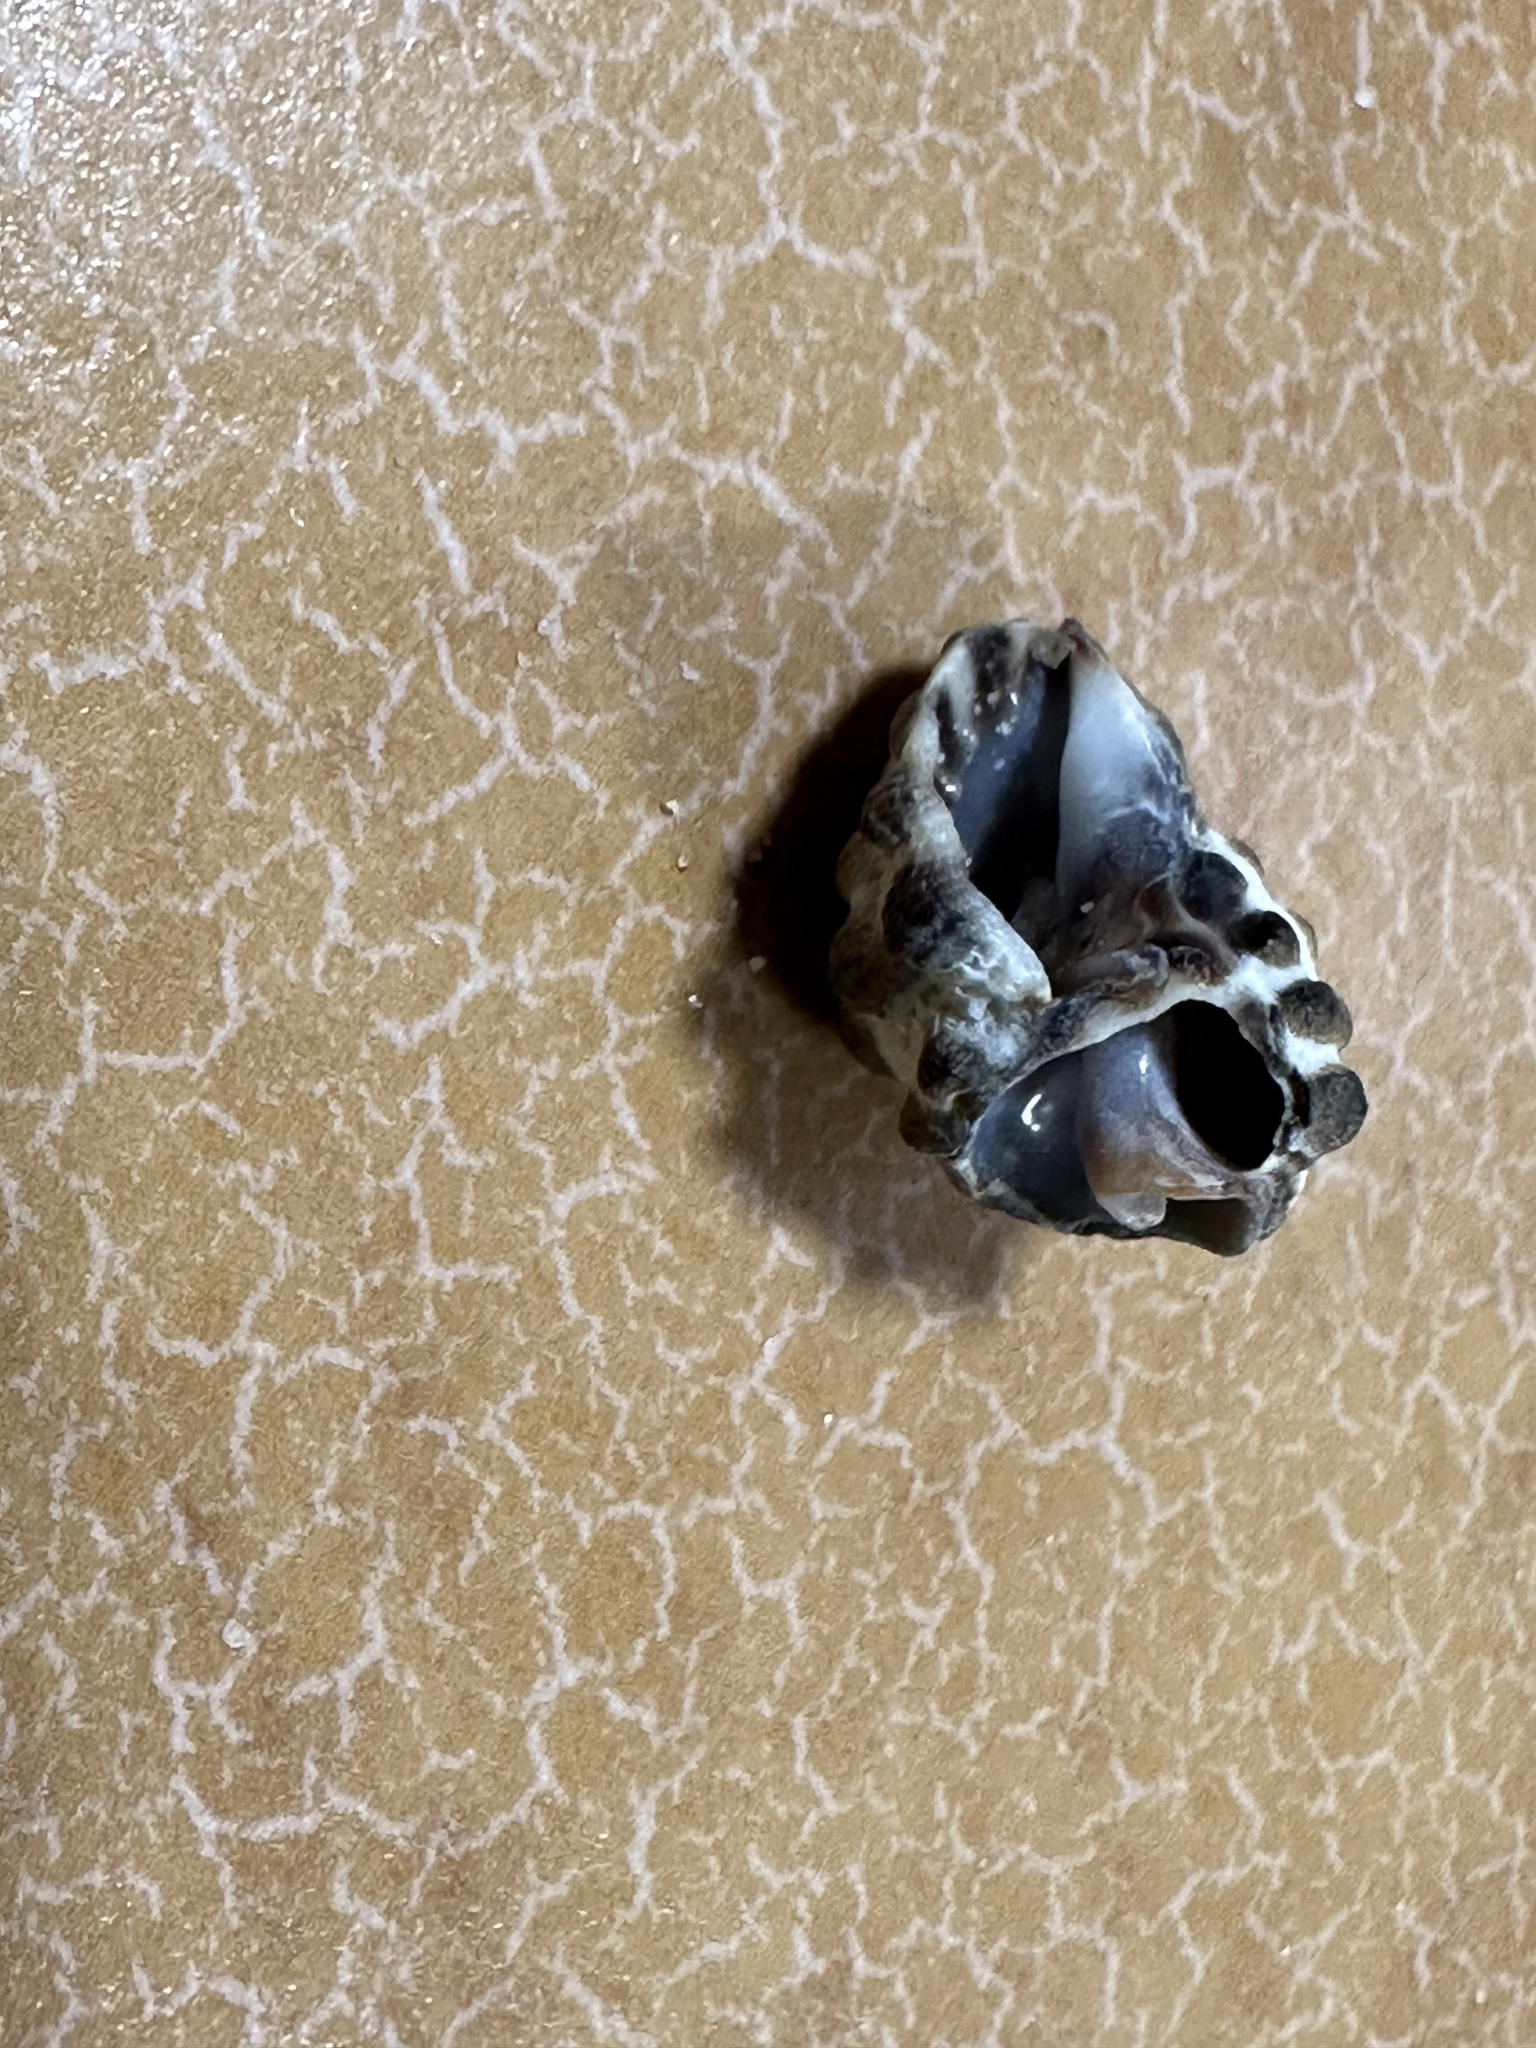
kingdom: Animalia
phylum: Mollusca
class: Gastropoda
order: Neogastropoda
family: Muricidae
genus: Tenguella
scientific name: Tenguella marginalba
